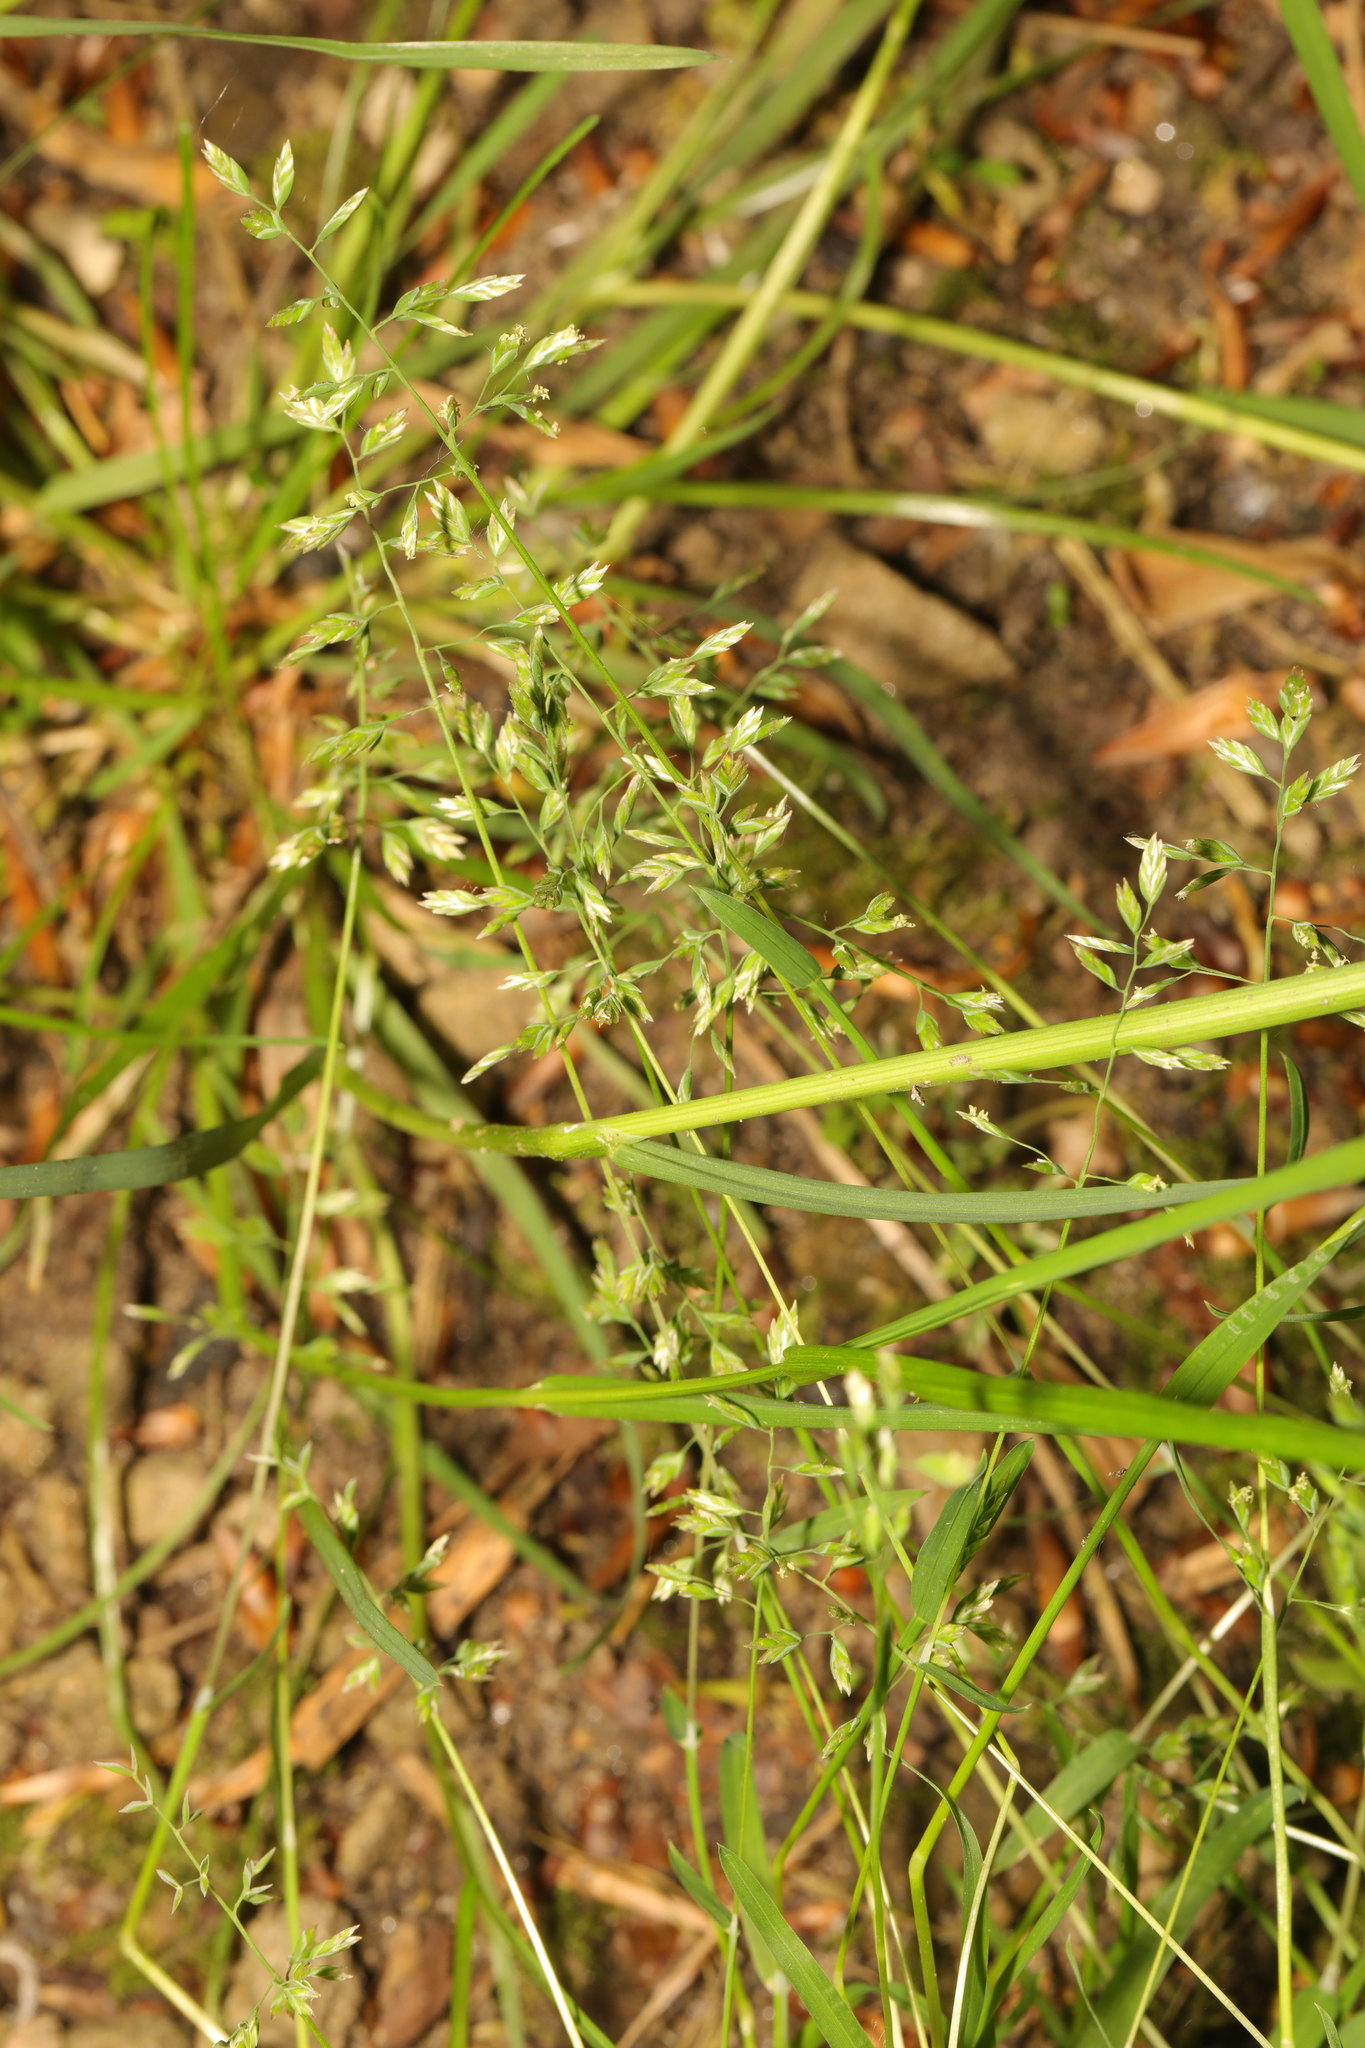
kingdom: Plantae
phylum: Tracheophyta
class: Liliopsida
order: Poales
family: Poaceae
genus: Poa
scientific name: Poa annua
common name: Annual bluegrass
